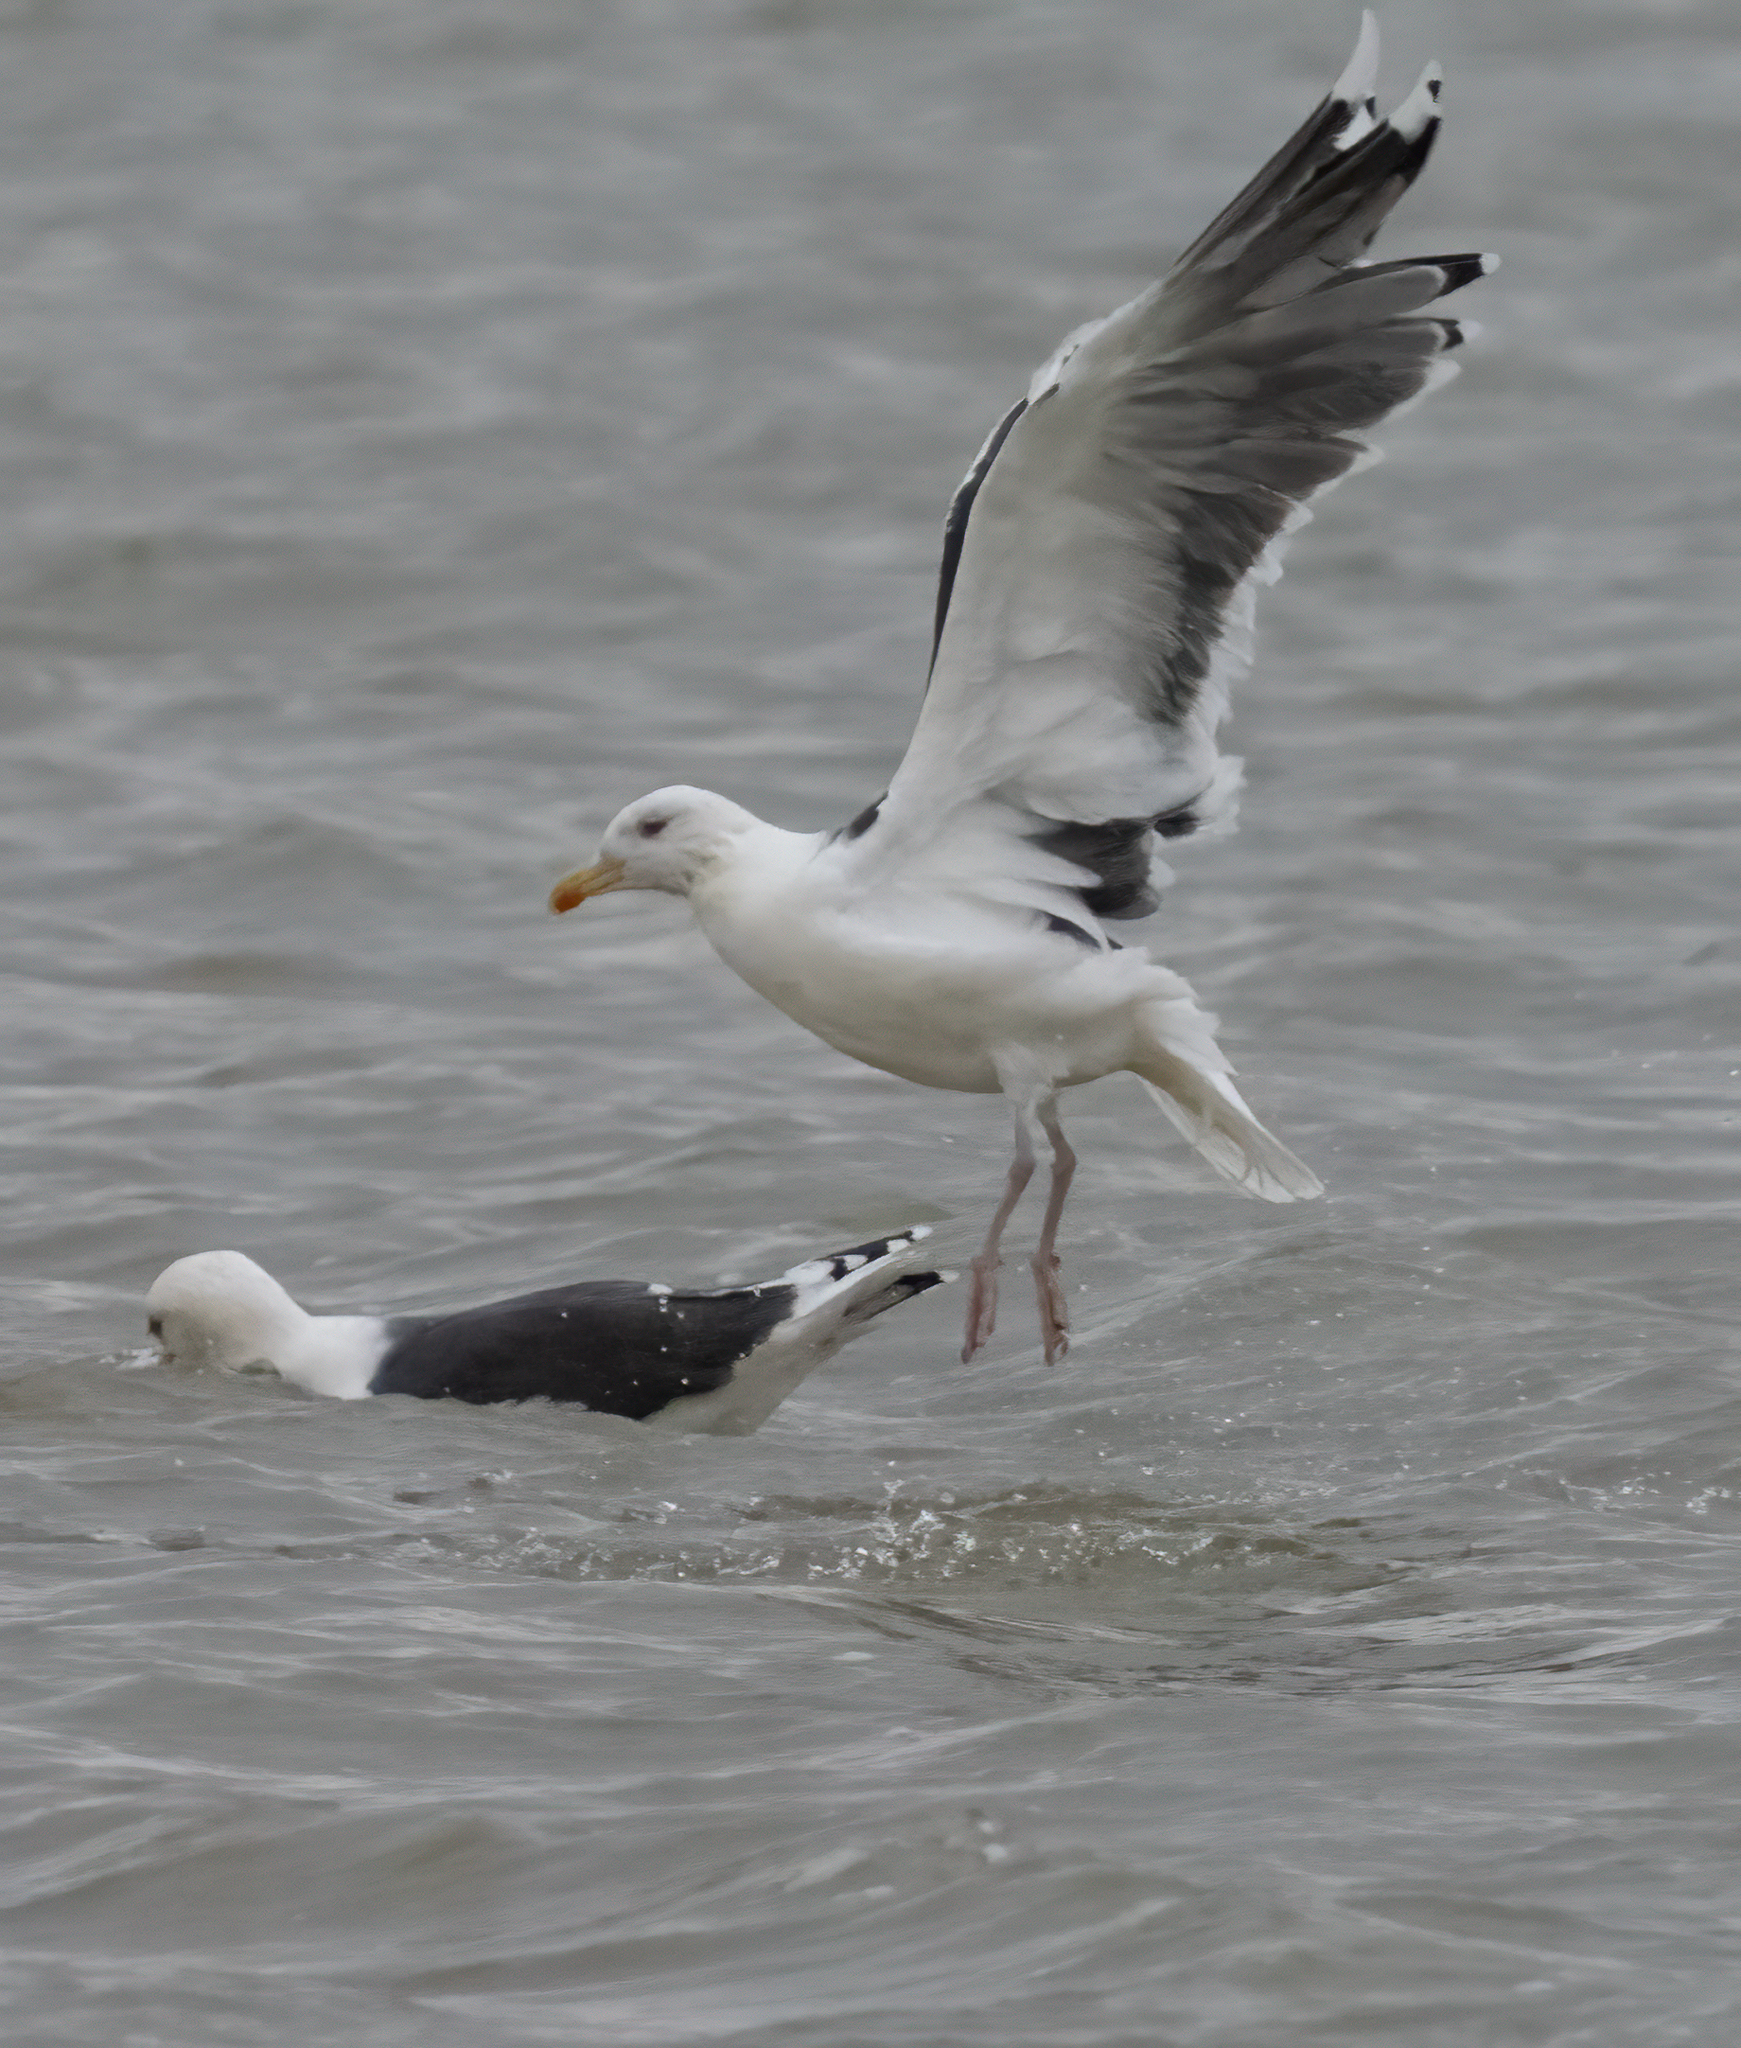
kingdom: Animalia
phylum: Chordata
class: Aves
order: Charadriiformes
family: Laridae
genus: Larus
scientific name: Larus marinus
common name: Great black-backed gull
